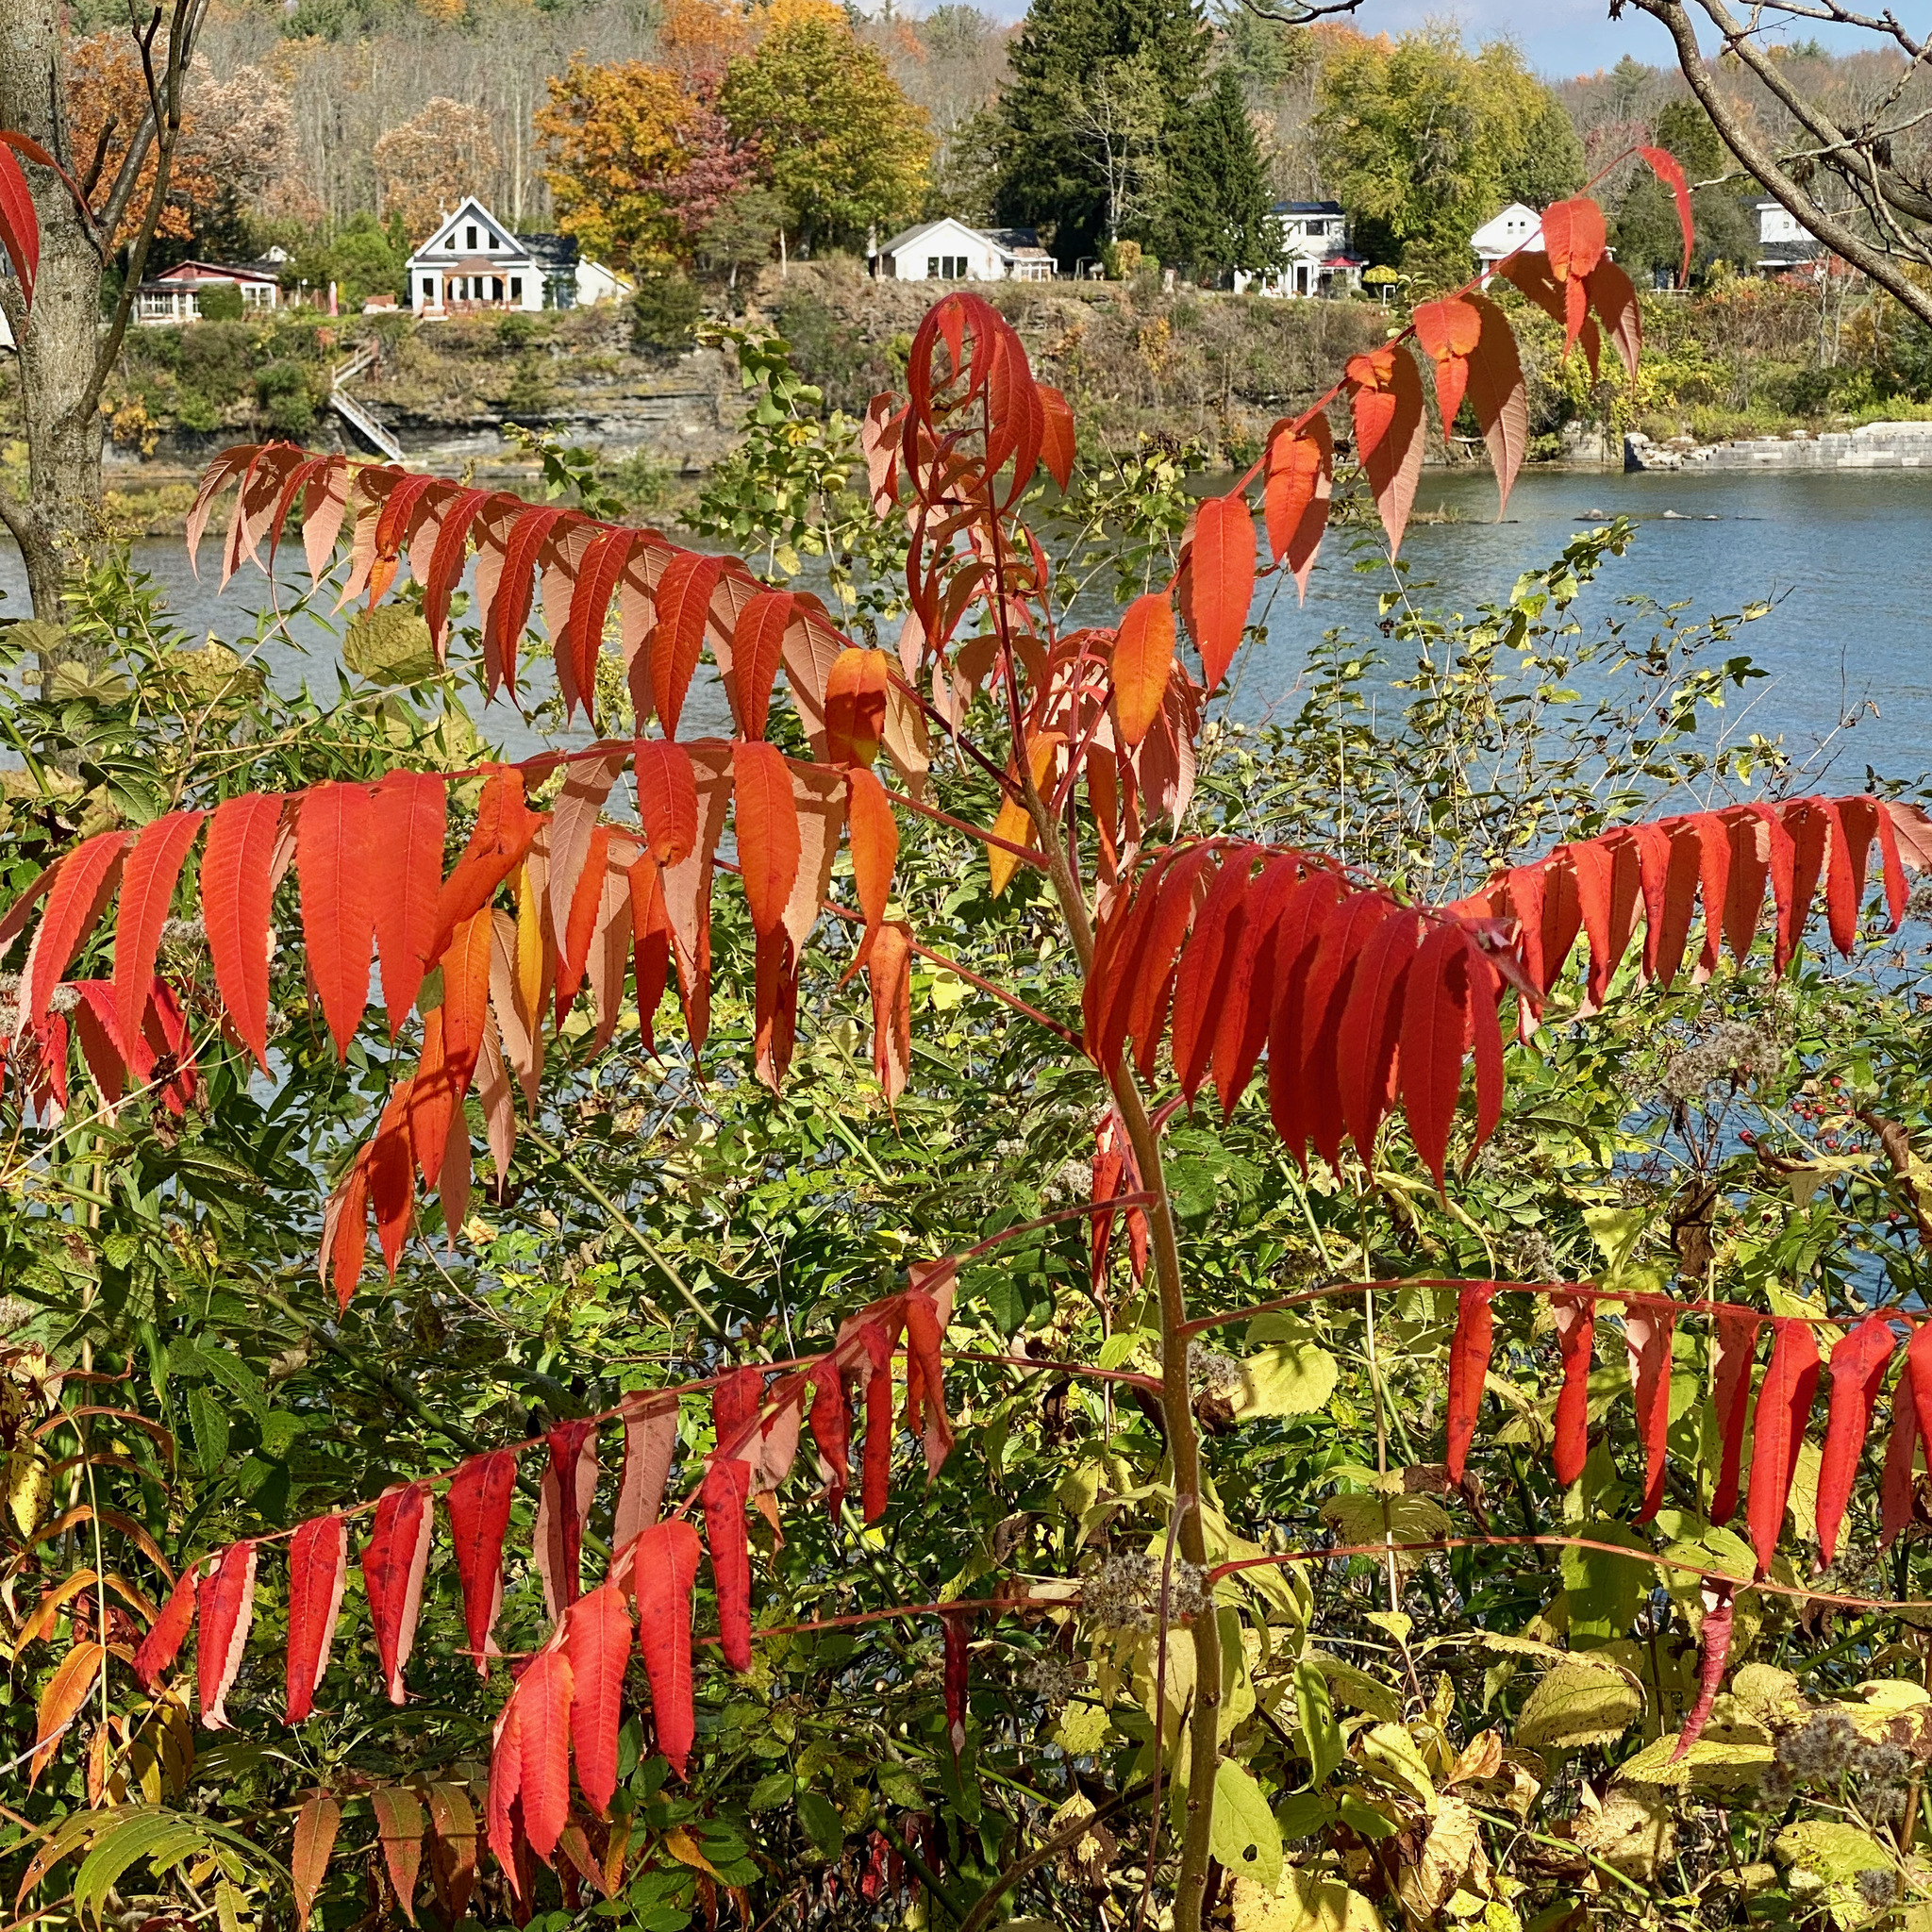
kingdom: Plantae
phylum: Tracheophyta
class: Magnoliopsida
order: Sapindales
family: Anacardiaceae
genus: Rhus
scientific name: Rhus typhina
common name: Staghorn sumac
